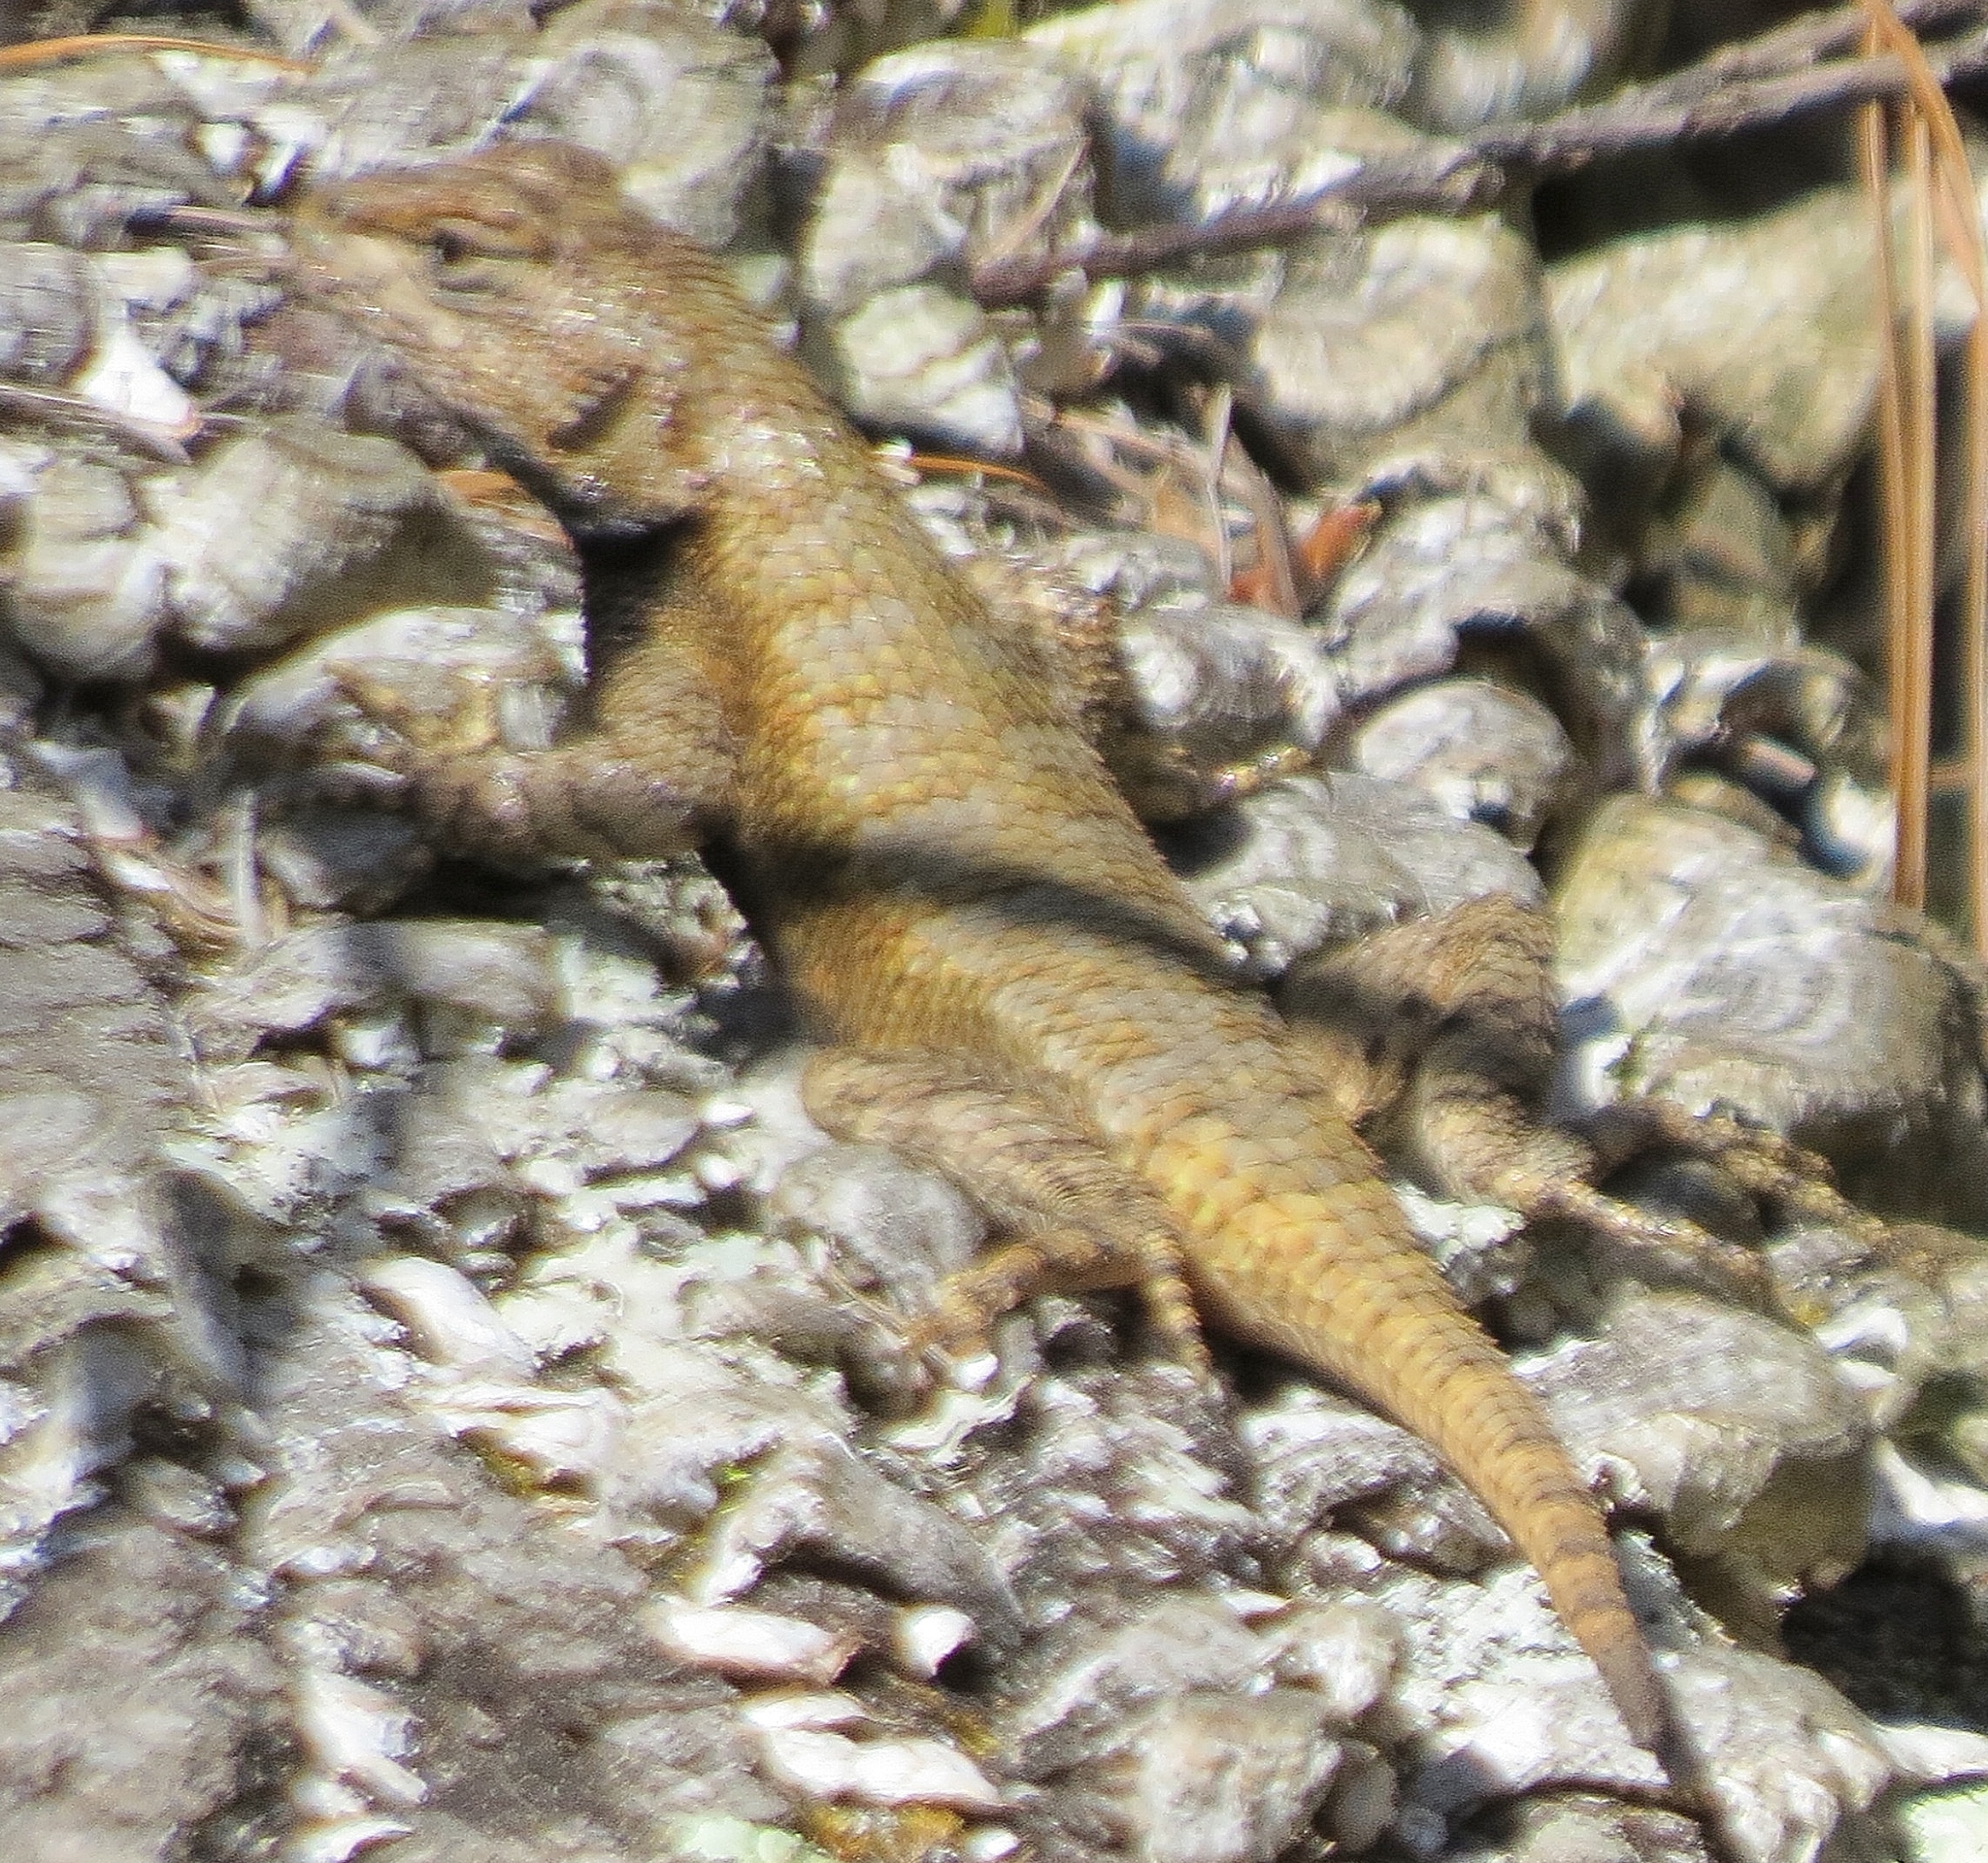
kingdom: Animalia
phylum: Chordata
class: Squamata
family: Phrynosomatidae
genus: Sceloporus
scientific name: Sceloporus undulatus
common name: Eastern fence lizard
